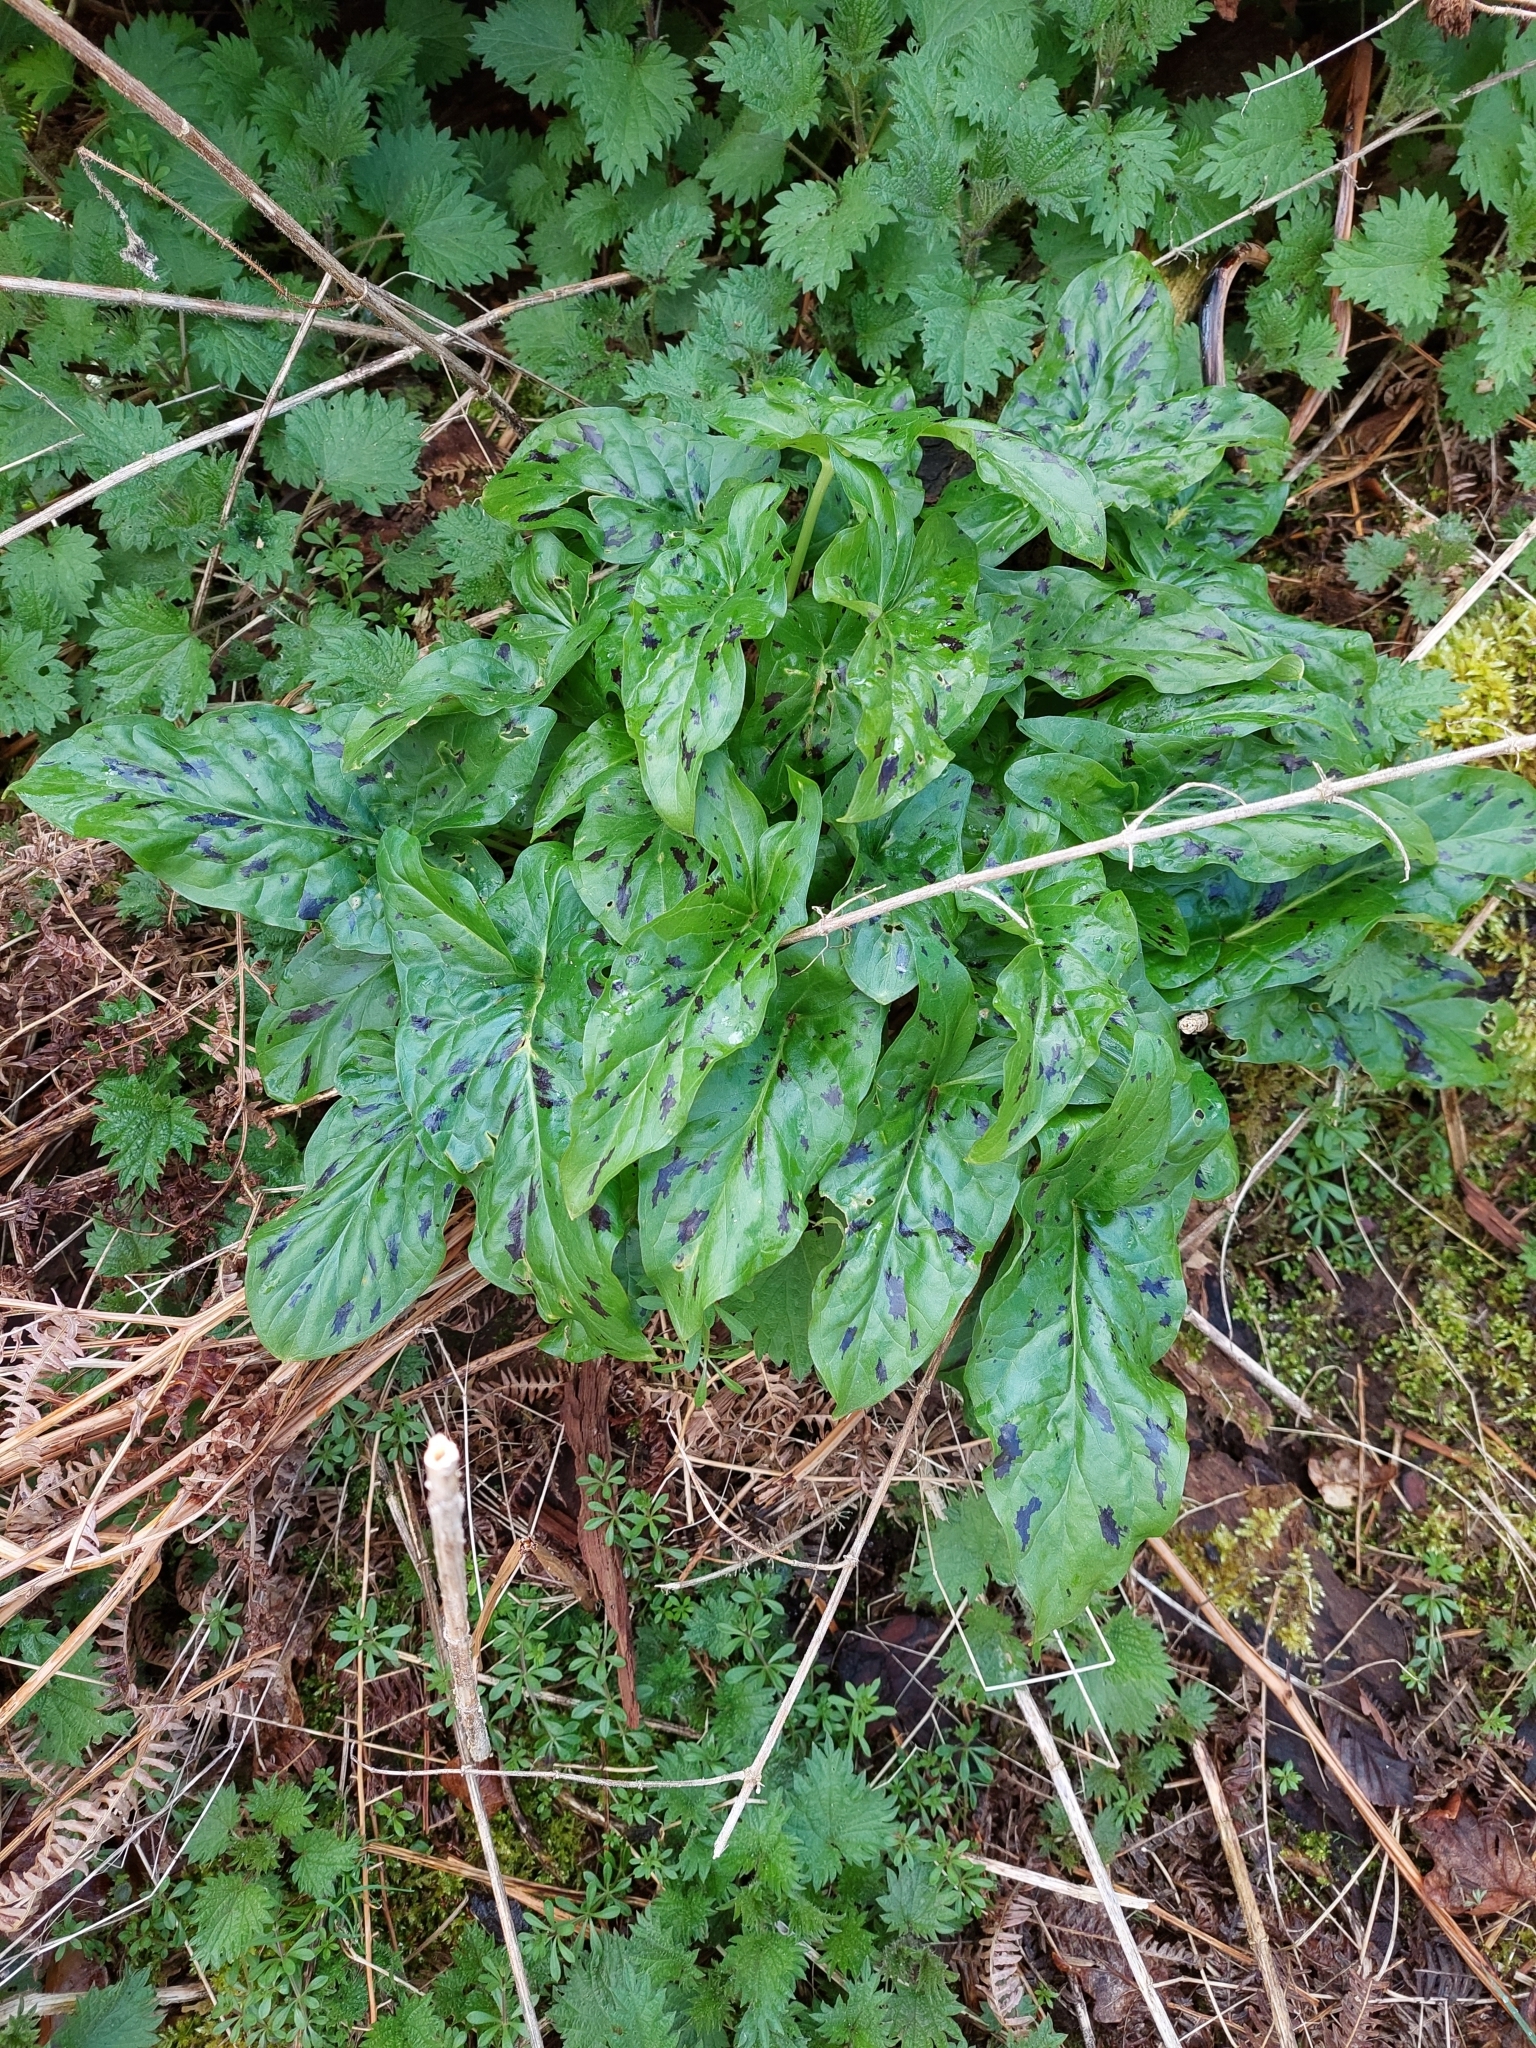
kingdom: Plantae
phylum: Tracheophyta
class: Liliopsida
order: Alismatales
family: Araceae
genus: Arum
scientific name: Arum maculatum
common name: Lords-and-ladies
